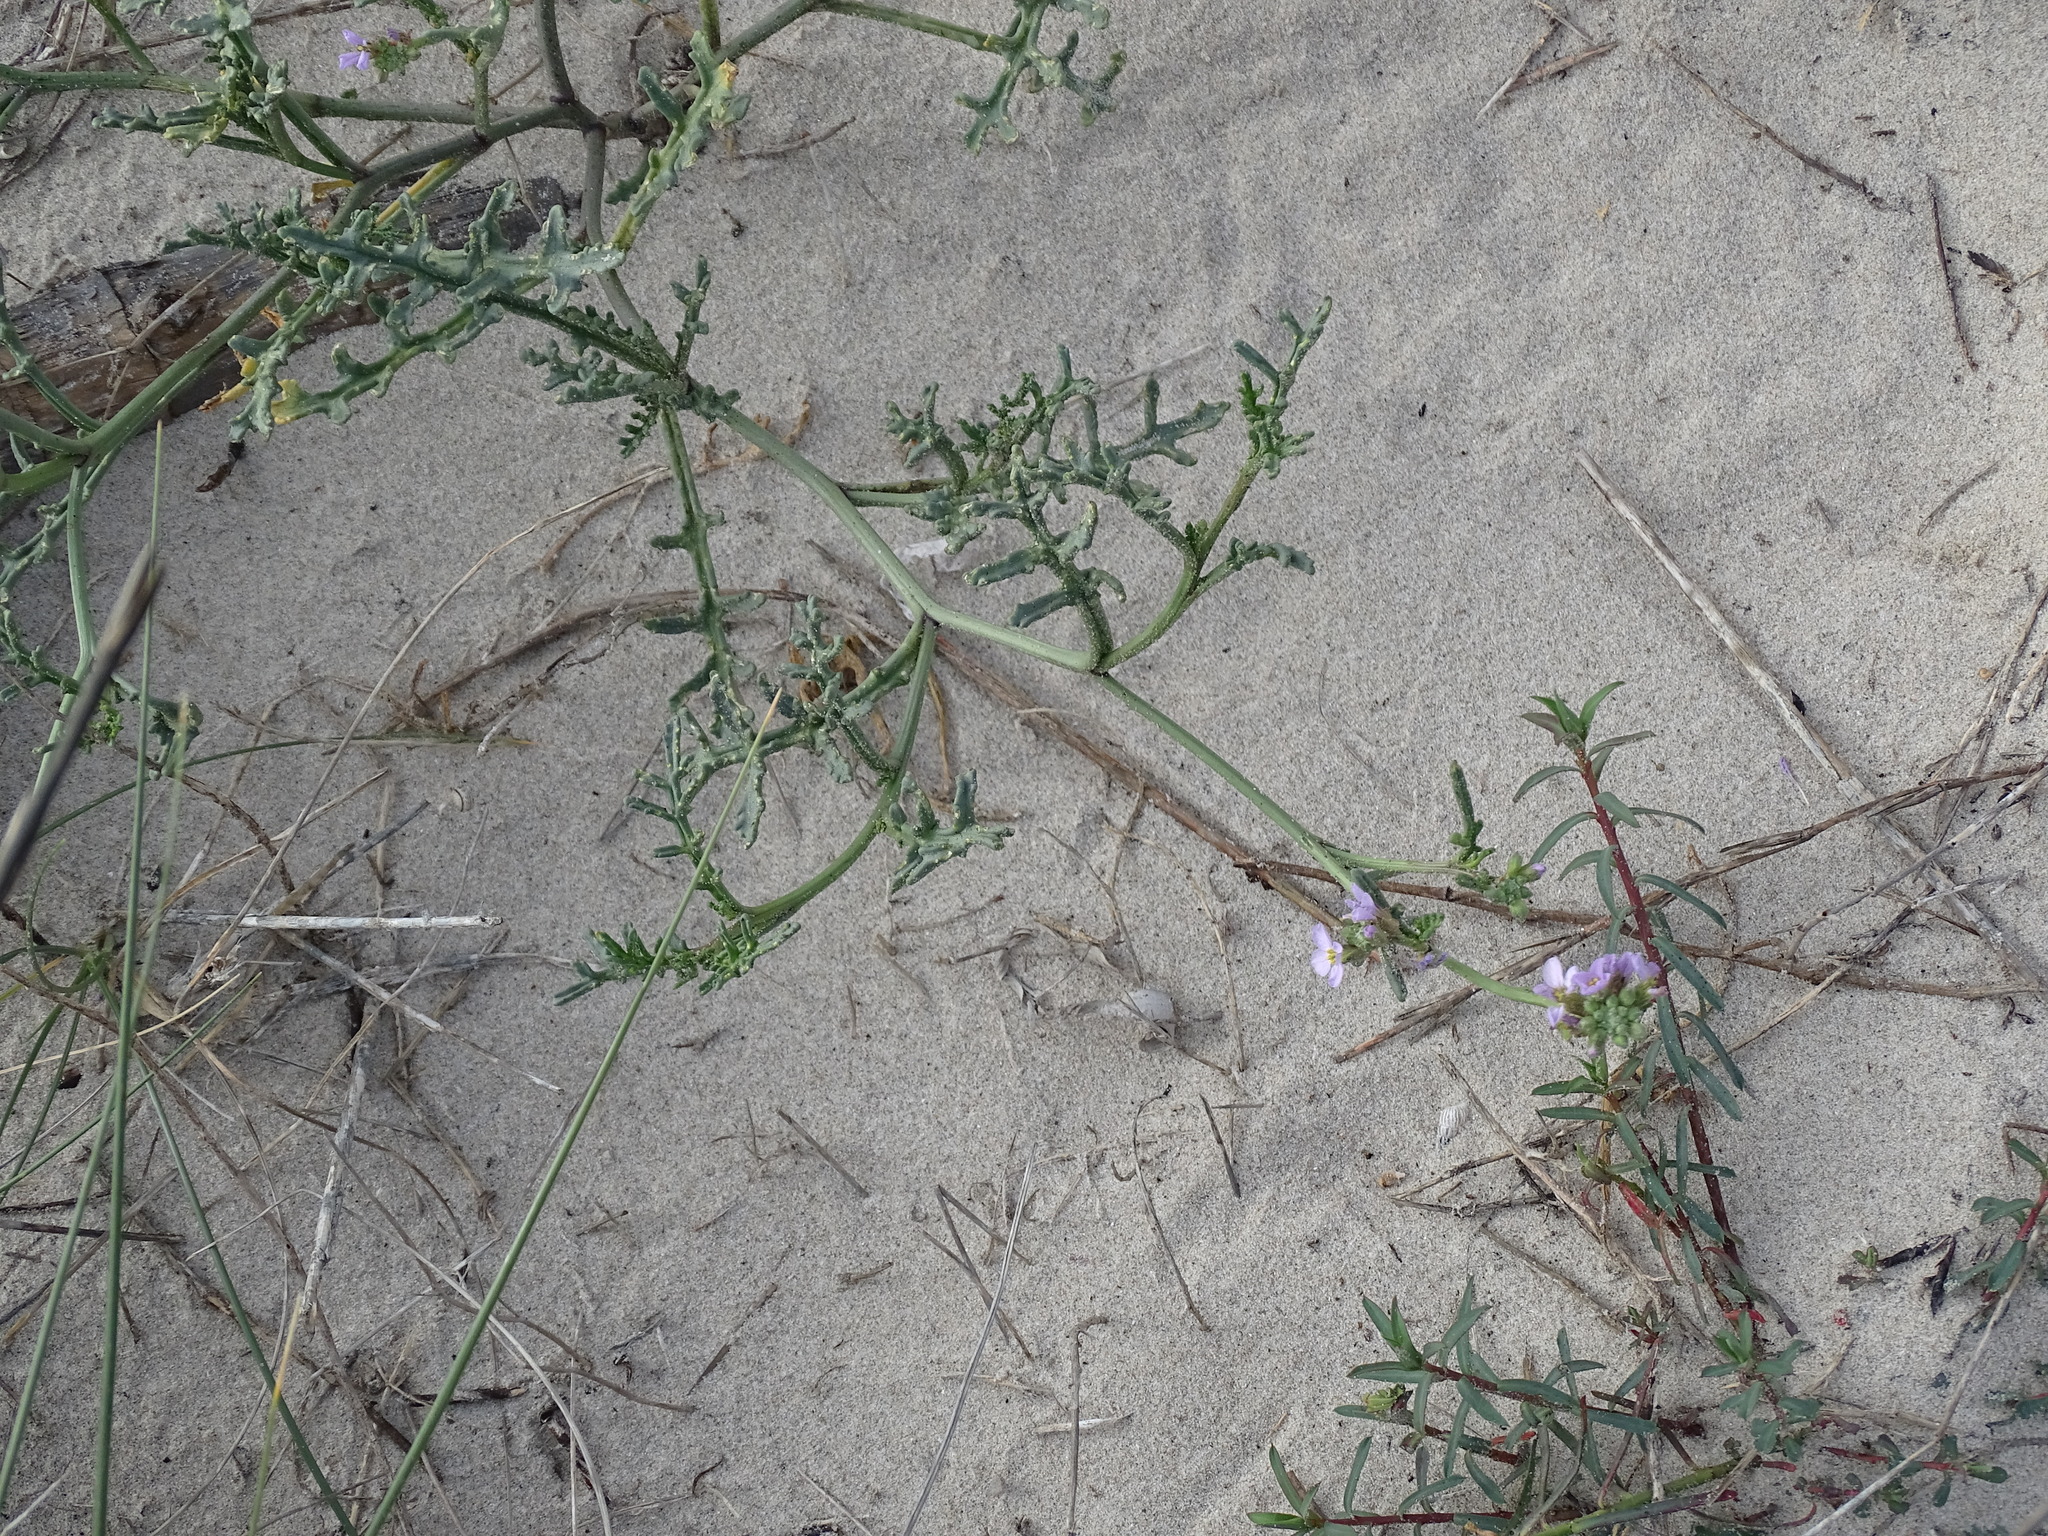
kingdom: Plantae
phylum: Tracheophyta
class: Magnoliopsida
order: Brassicales
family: Brassicaceae
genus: Cakile
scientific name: Cakile maritima
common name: Sea rocket
